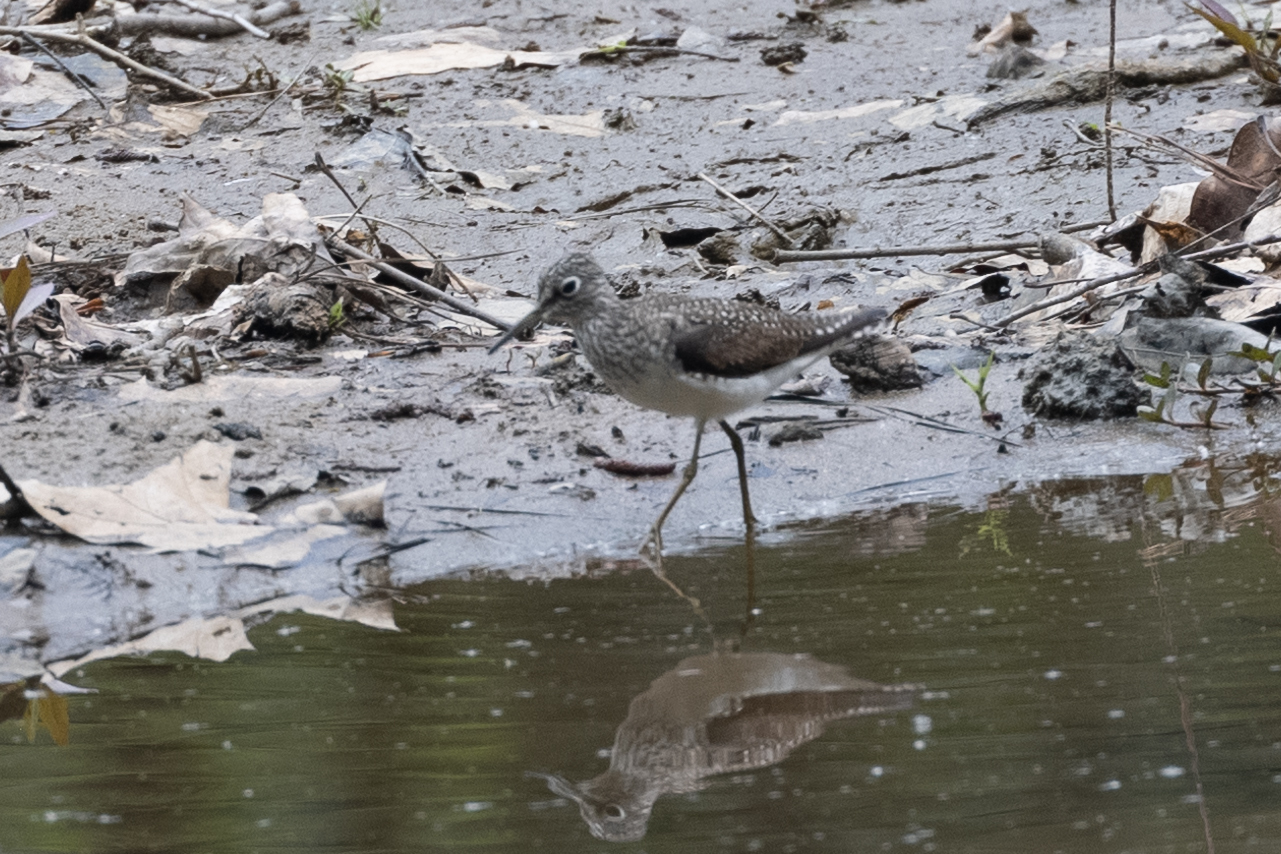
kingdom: Animalia
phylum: Chordata
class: Aves
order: Charadriiformes
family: Scolopacidae
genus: Tringa
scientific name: Tringa solitaria
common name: Solitary sandpiper
